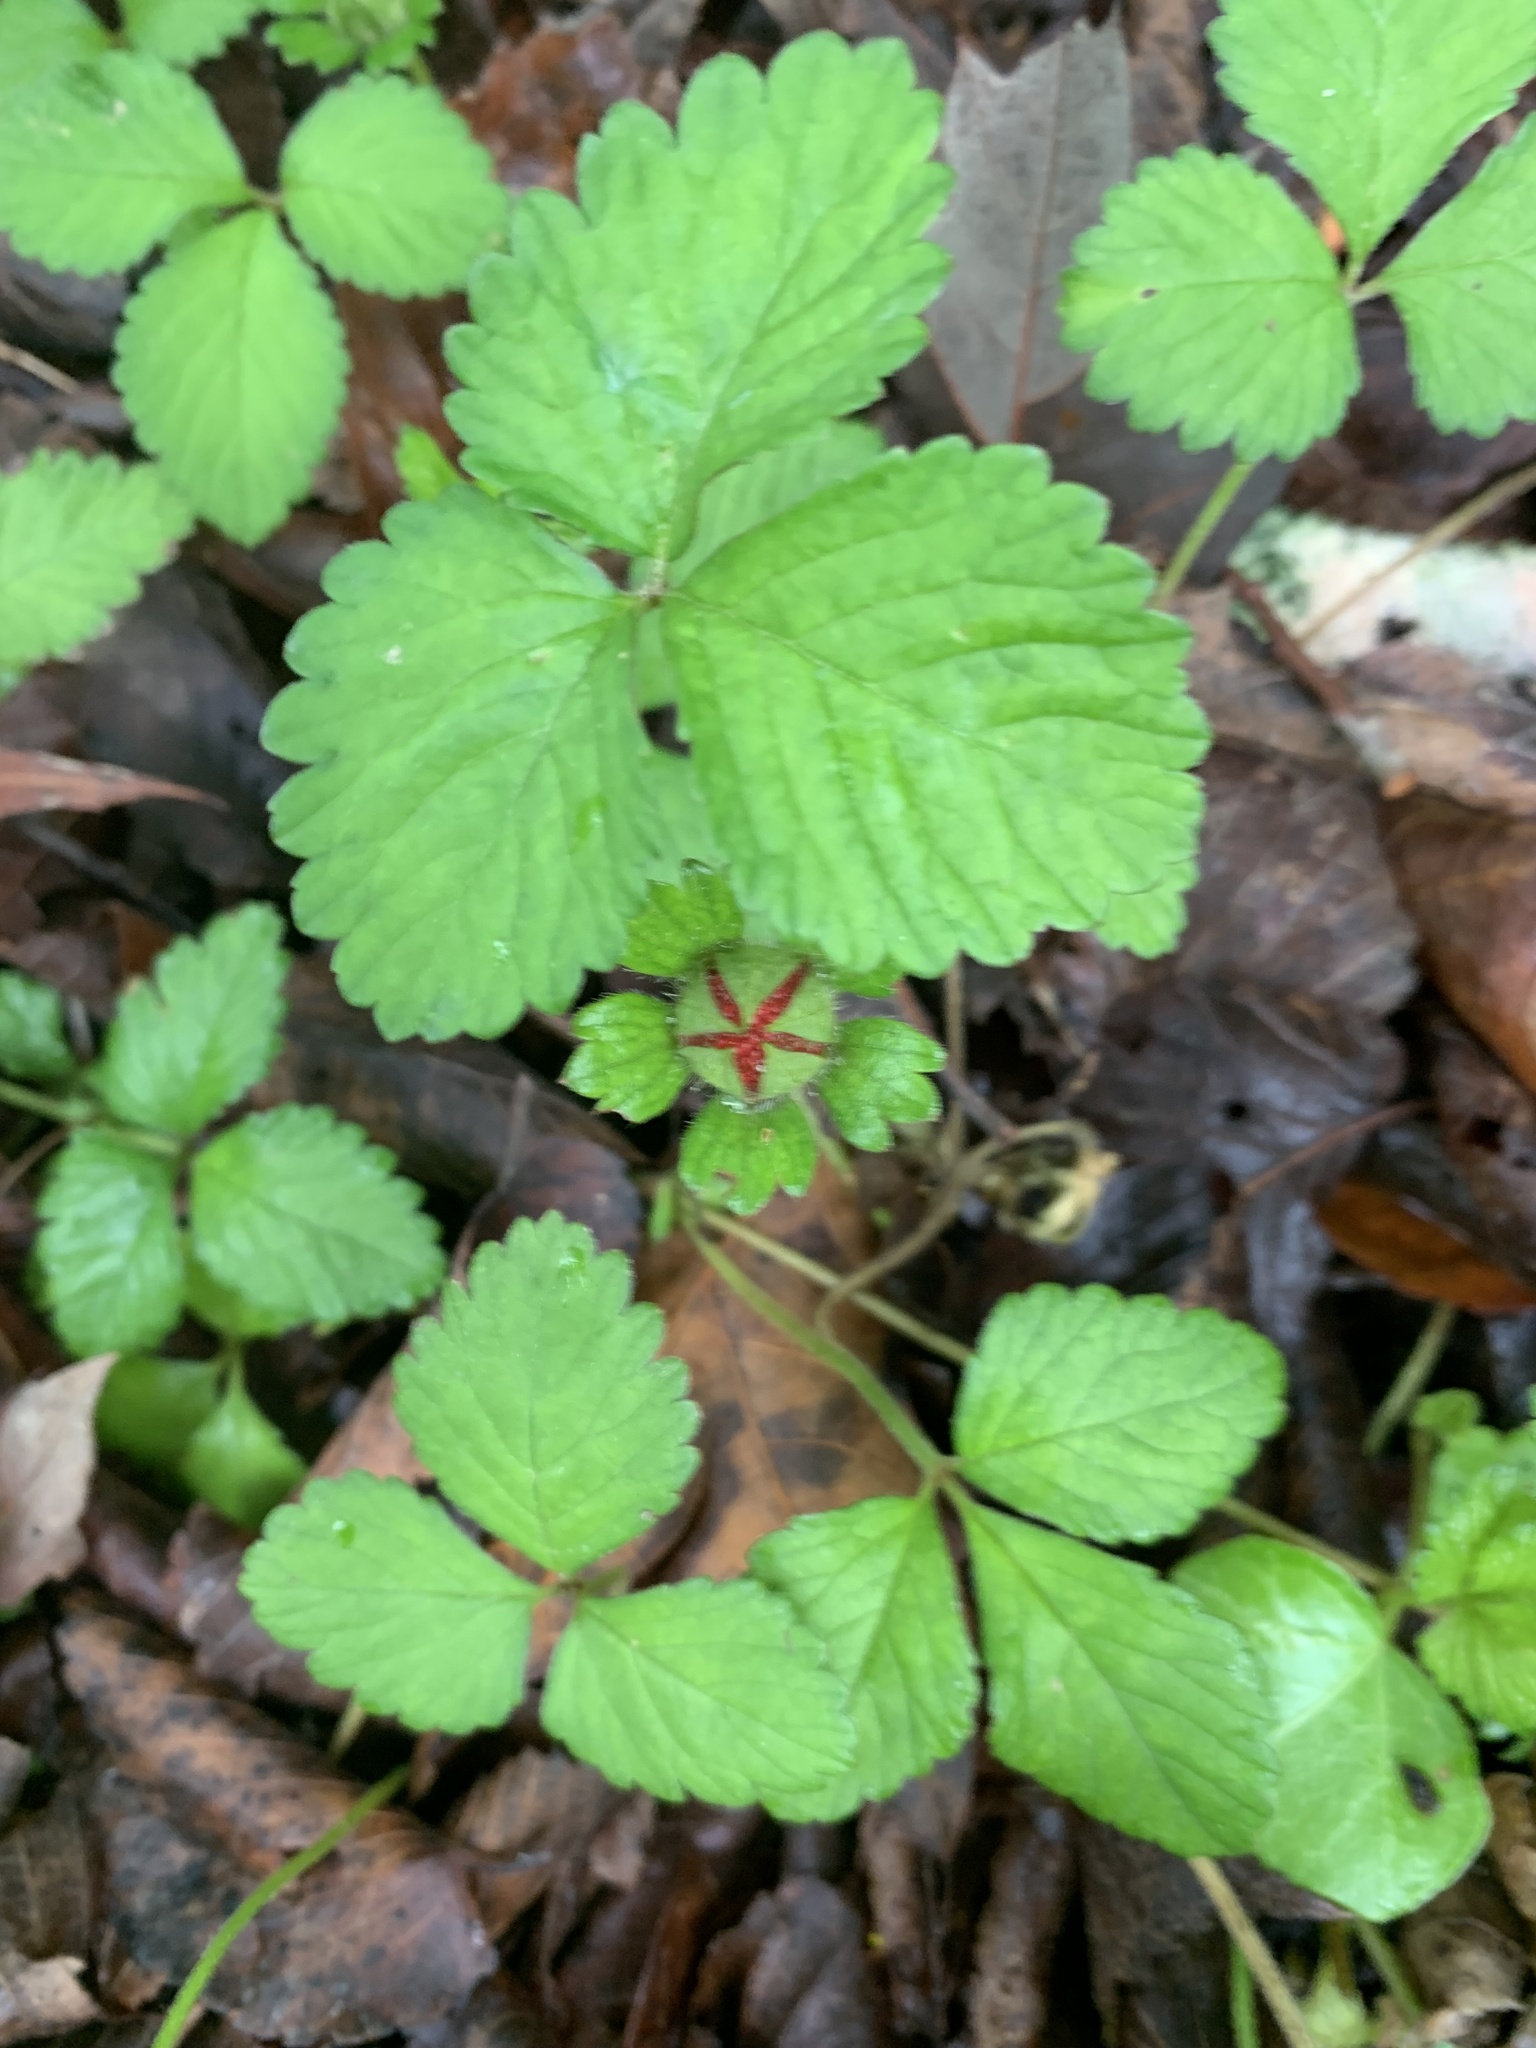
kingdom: Plantae
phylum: Tracheophyta
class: Magnoliopsida
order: Rosales
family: Rosaceae
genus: Potentilla
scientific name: Potentilla indica
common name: Yellow-flowered strawberry
